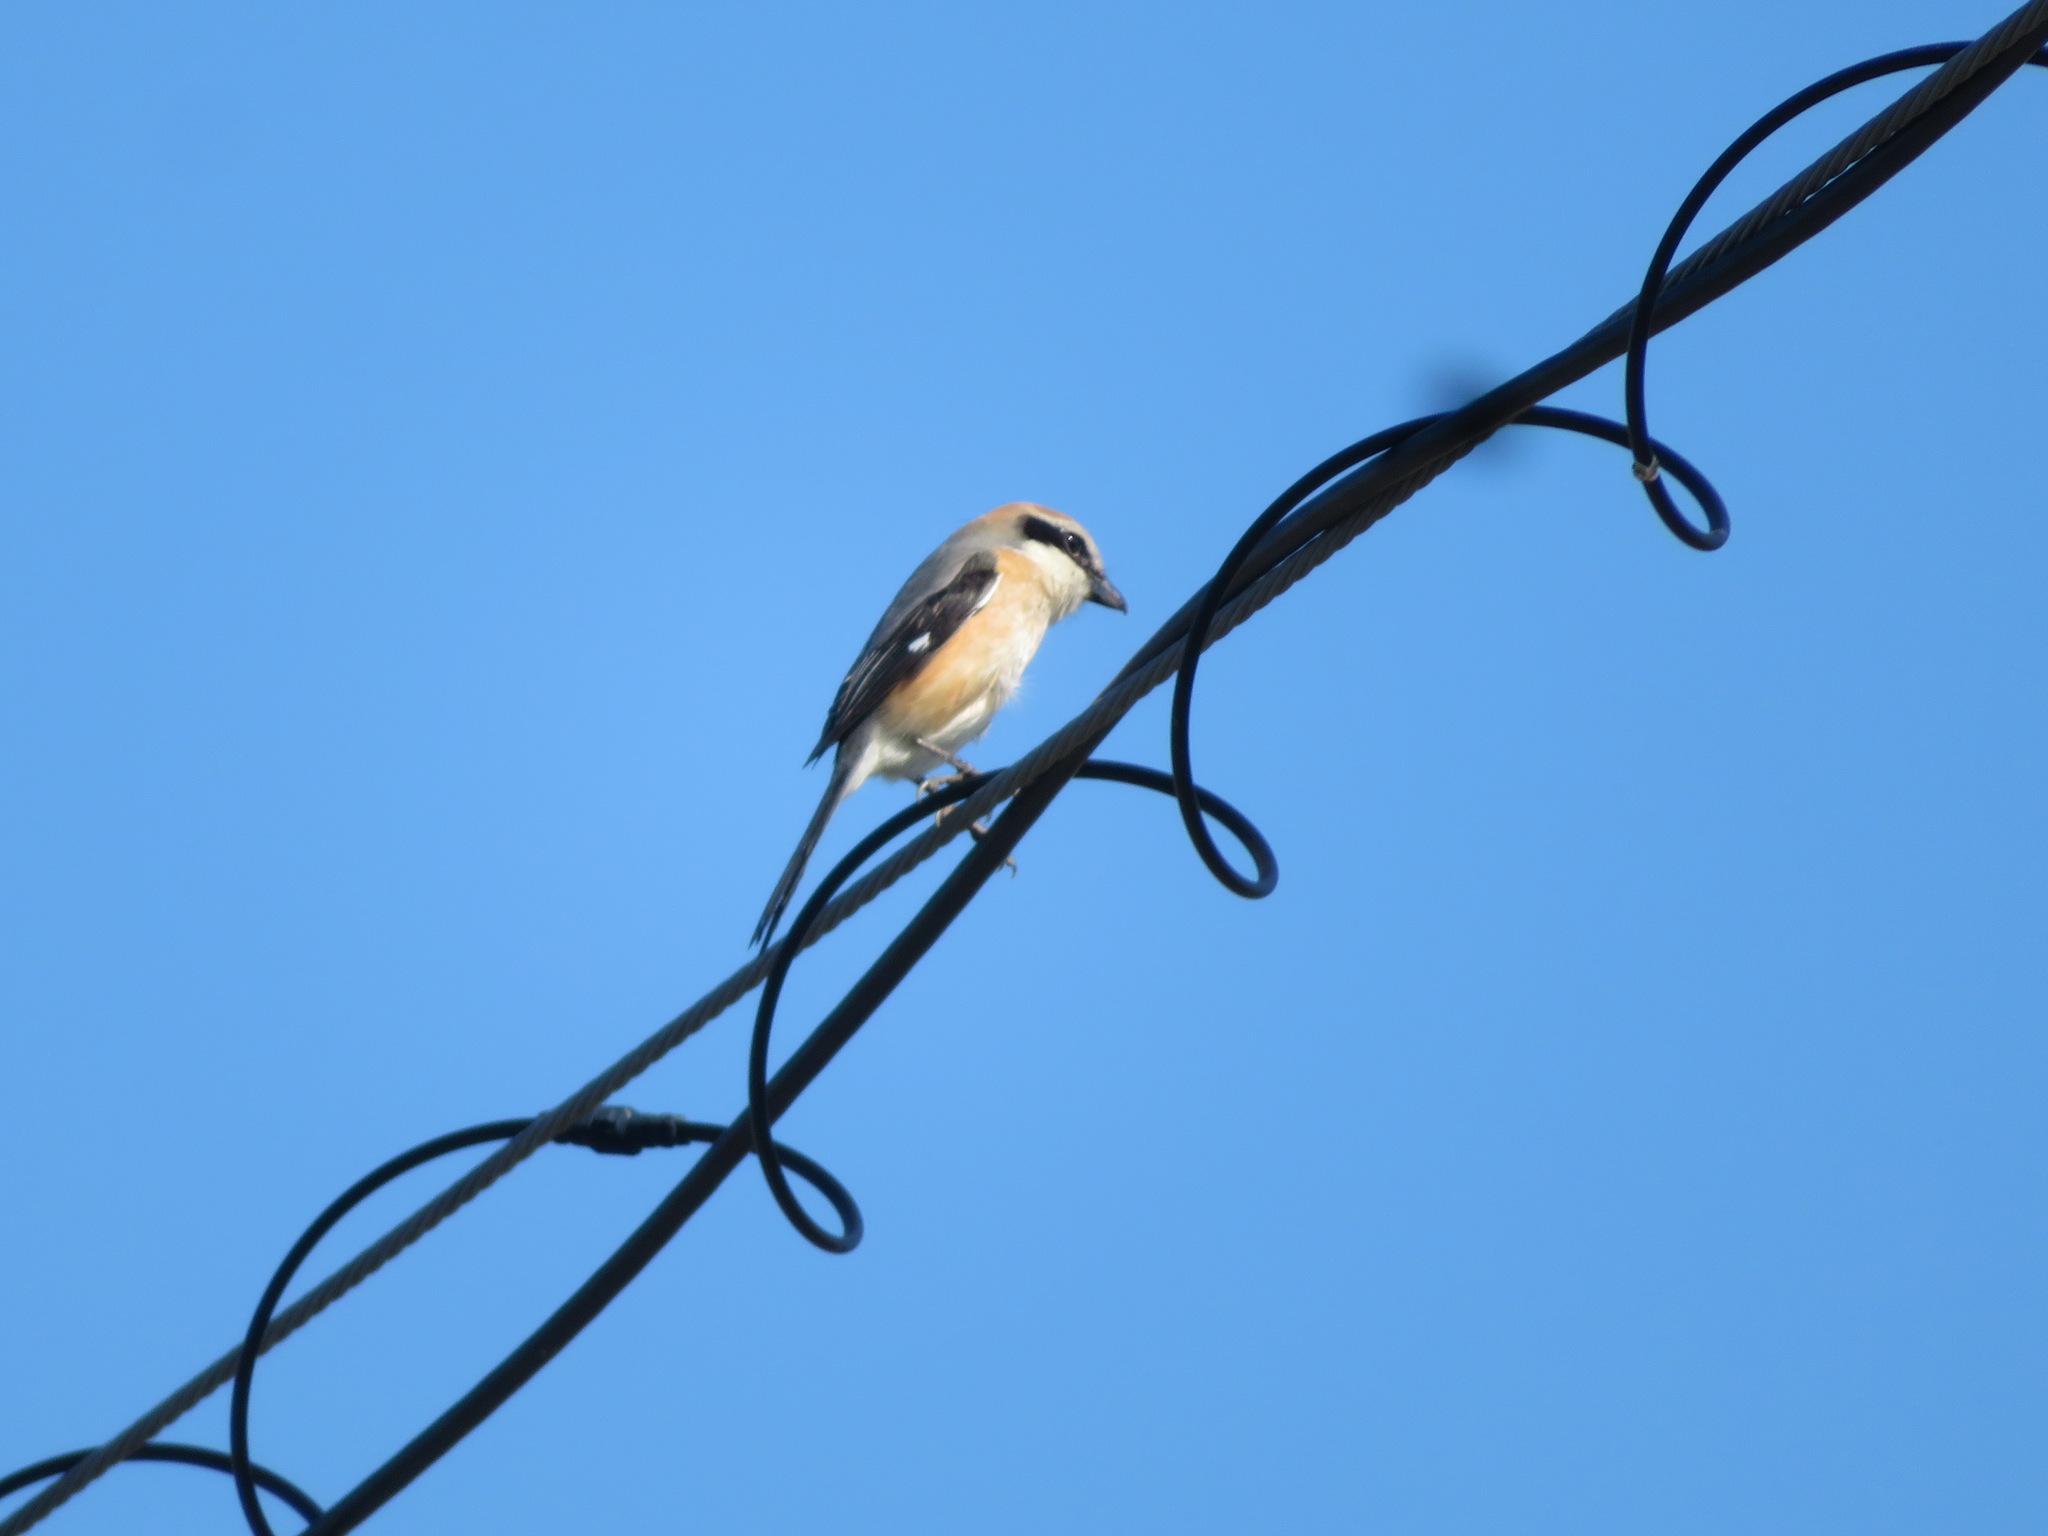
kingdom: Animalia
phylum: Chordata
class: Aves
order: Passeriformes
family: Laniidae
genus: Lanius
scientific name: Lanius bucephalus
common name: Bull-headed shrike
